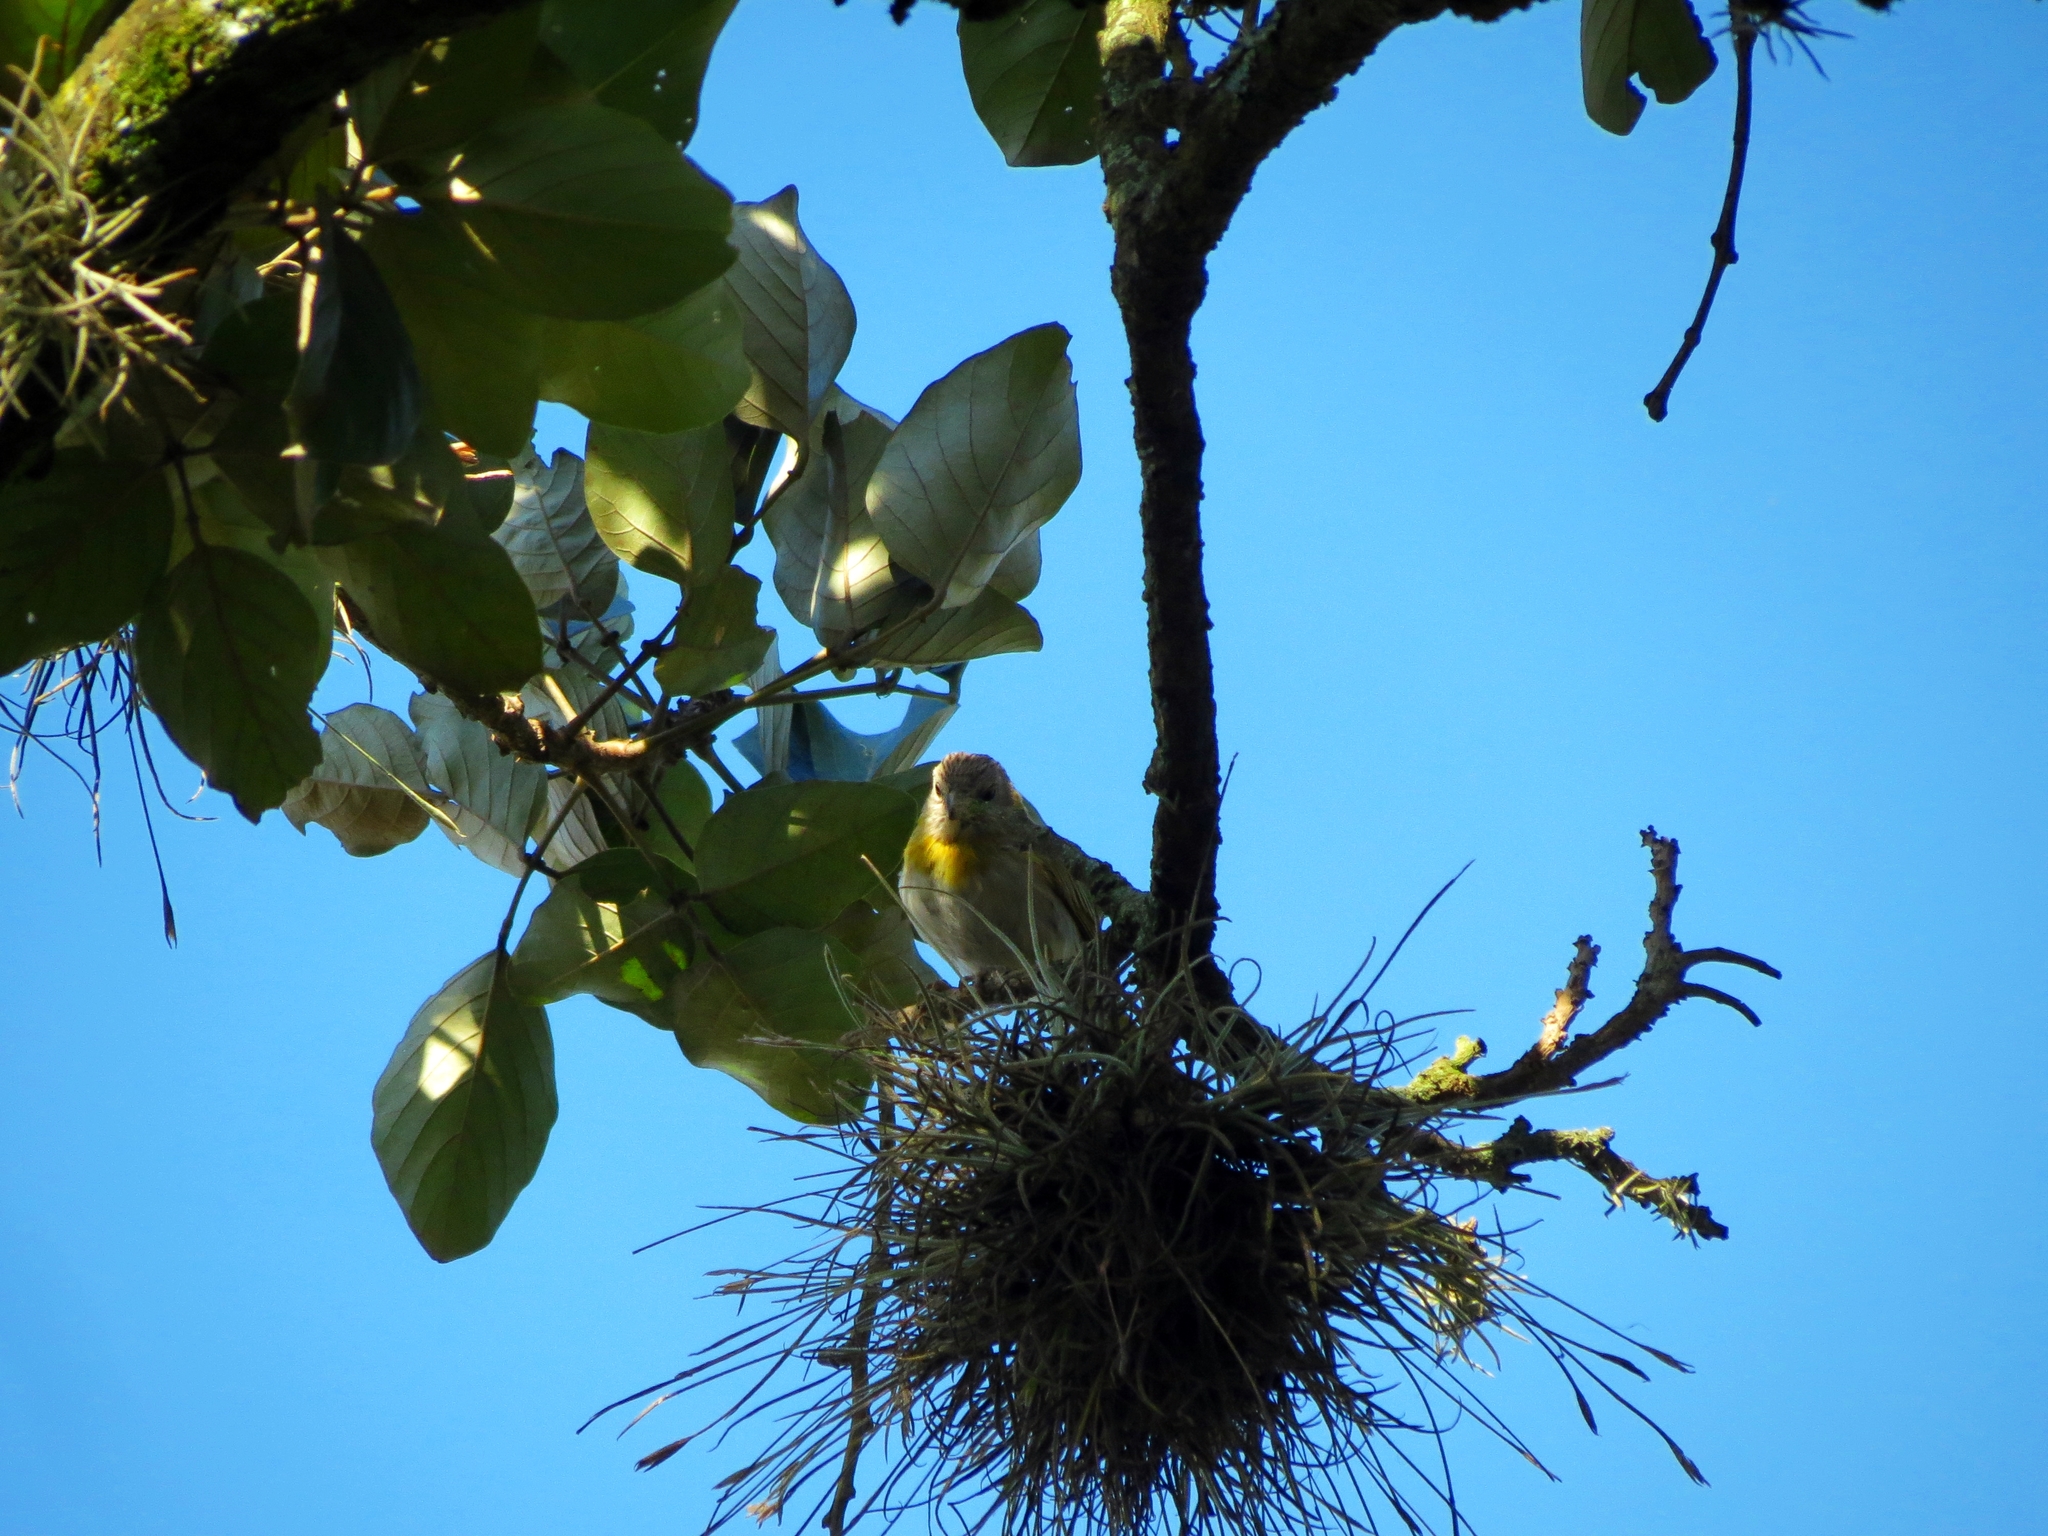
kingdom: Animalia
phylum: Chordata
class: Aves
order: Passeriformes
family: Thraupidae
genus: Sicalis
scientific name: Sicalis flaveola
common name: Saffron finch
